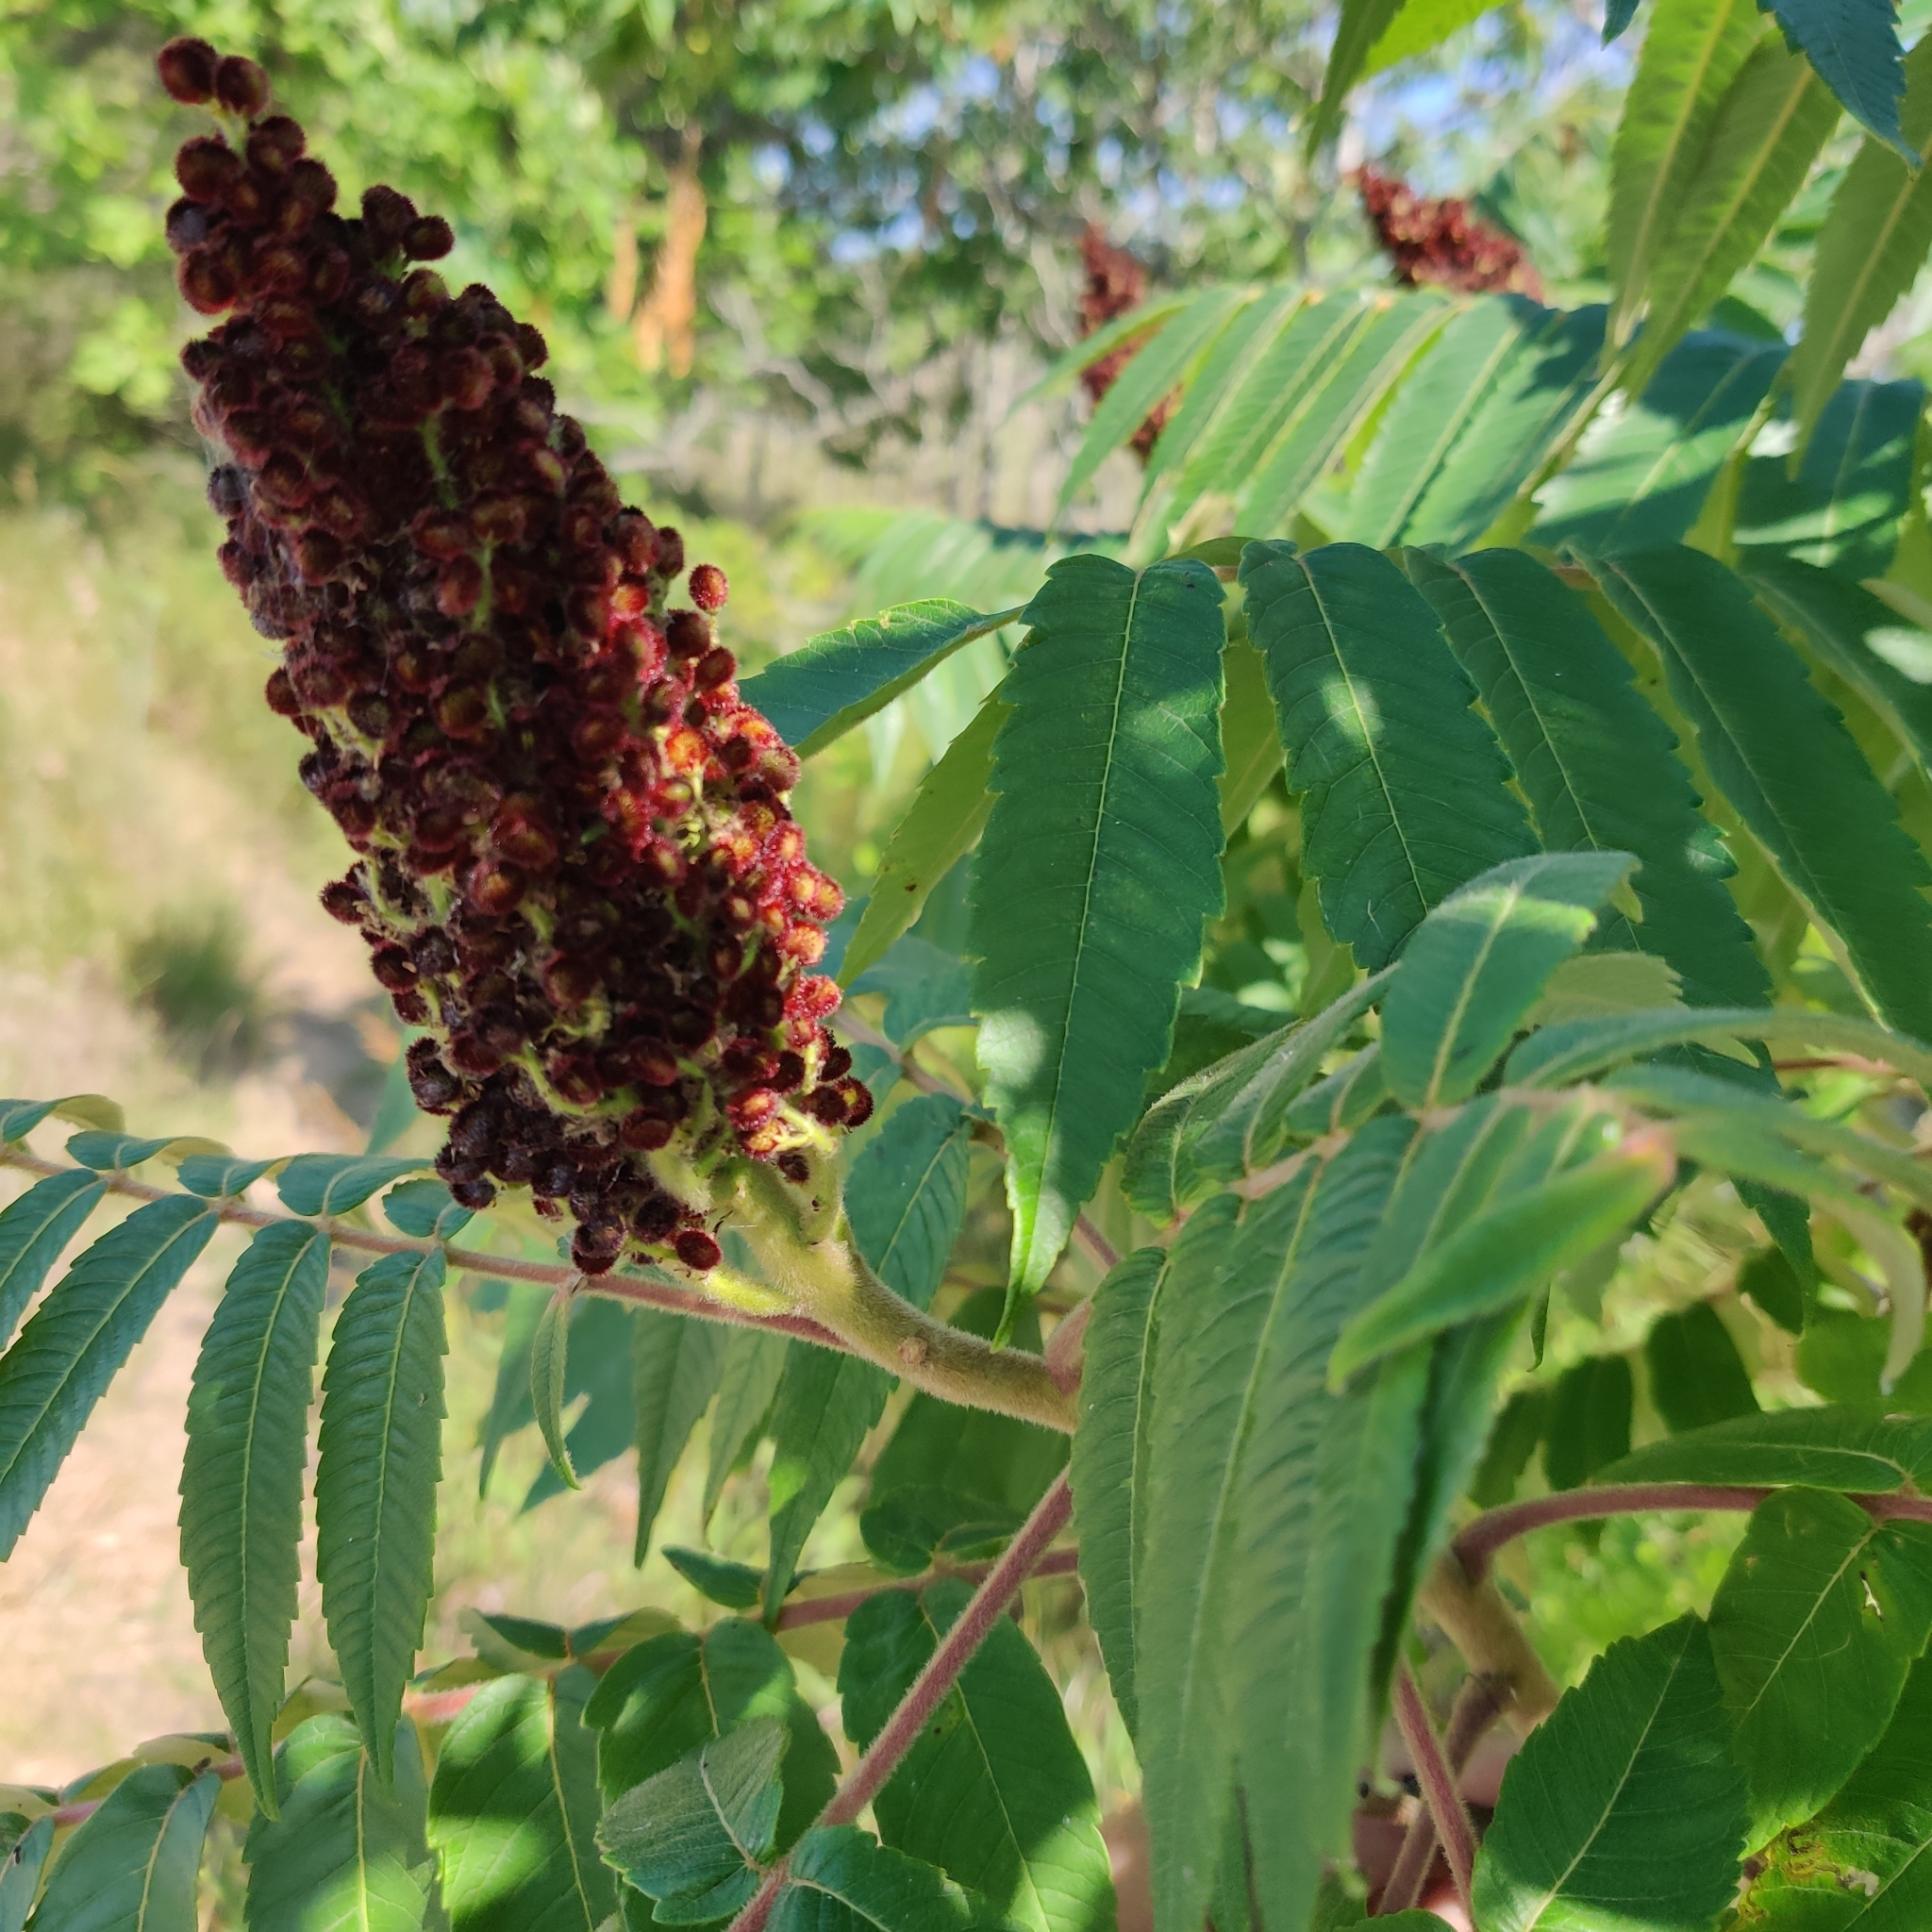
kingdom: Plantae
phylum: Tracheophyta
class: Magnoliopsida
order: Sapindales
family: Anacardiaceae
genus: Rhus
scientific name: Rhus typhina
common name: Staghorn sumac
